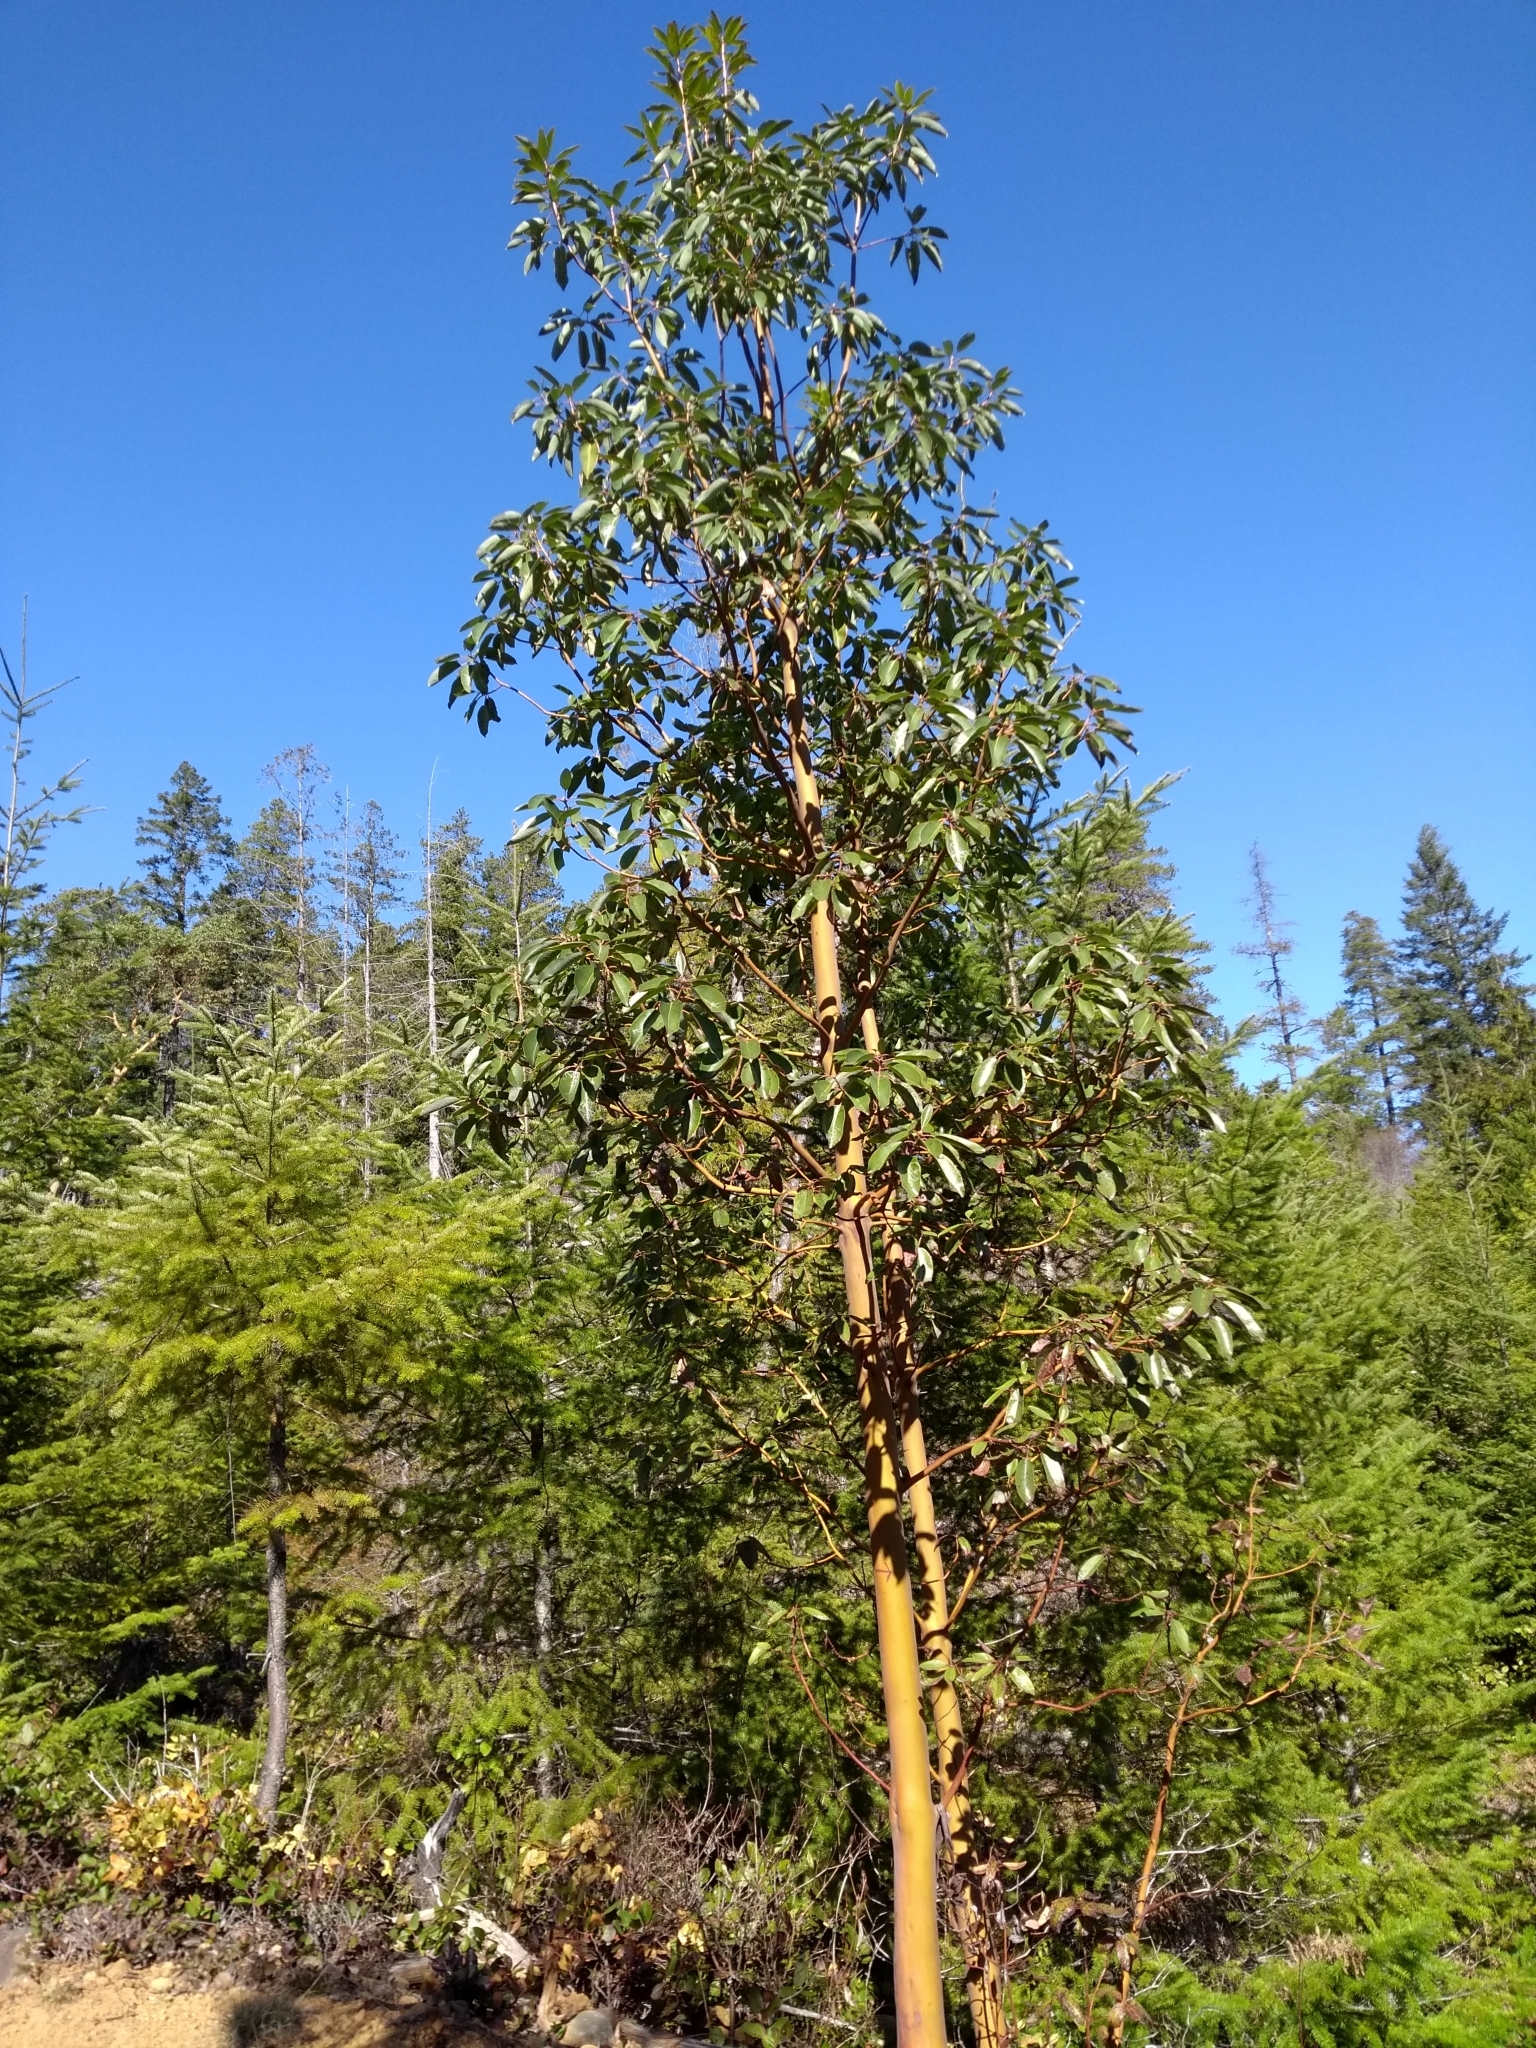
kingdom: Plantae
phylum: Tracheophyta
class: Magnoliopsida
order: Ericales
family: Ericaceae
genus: Arbutus
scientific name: Arbutus menziesii
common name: Pacific madrone
